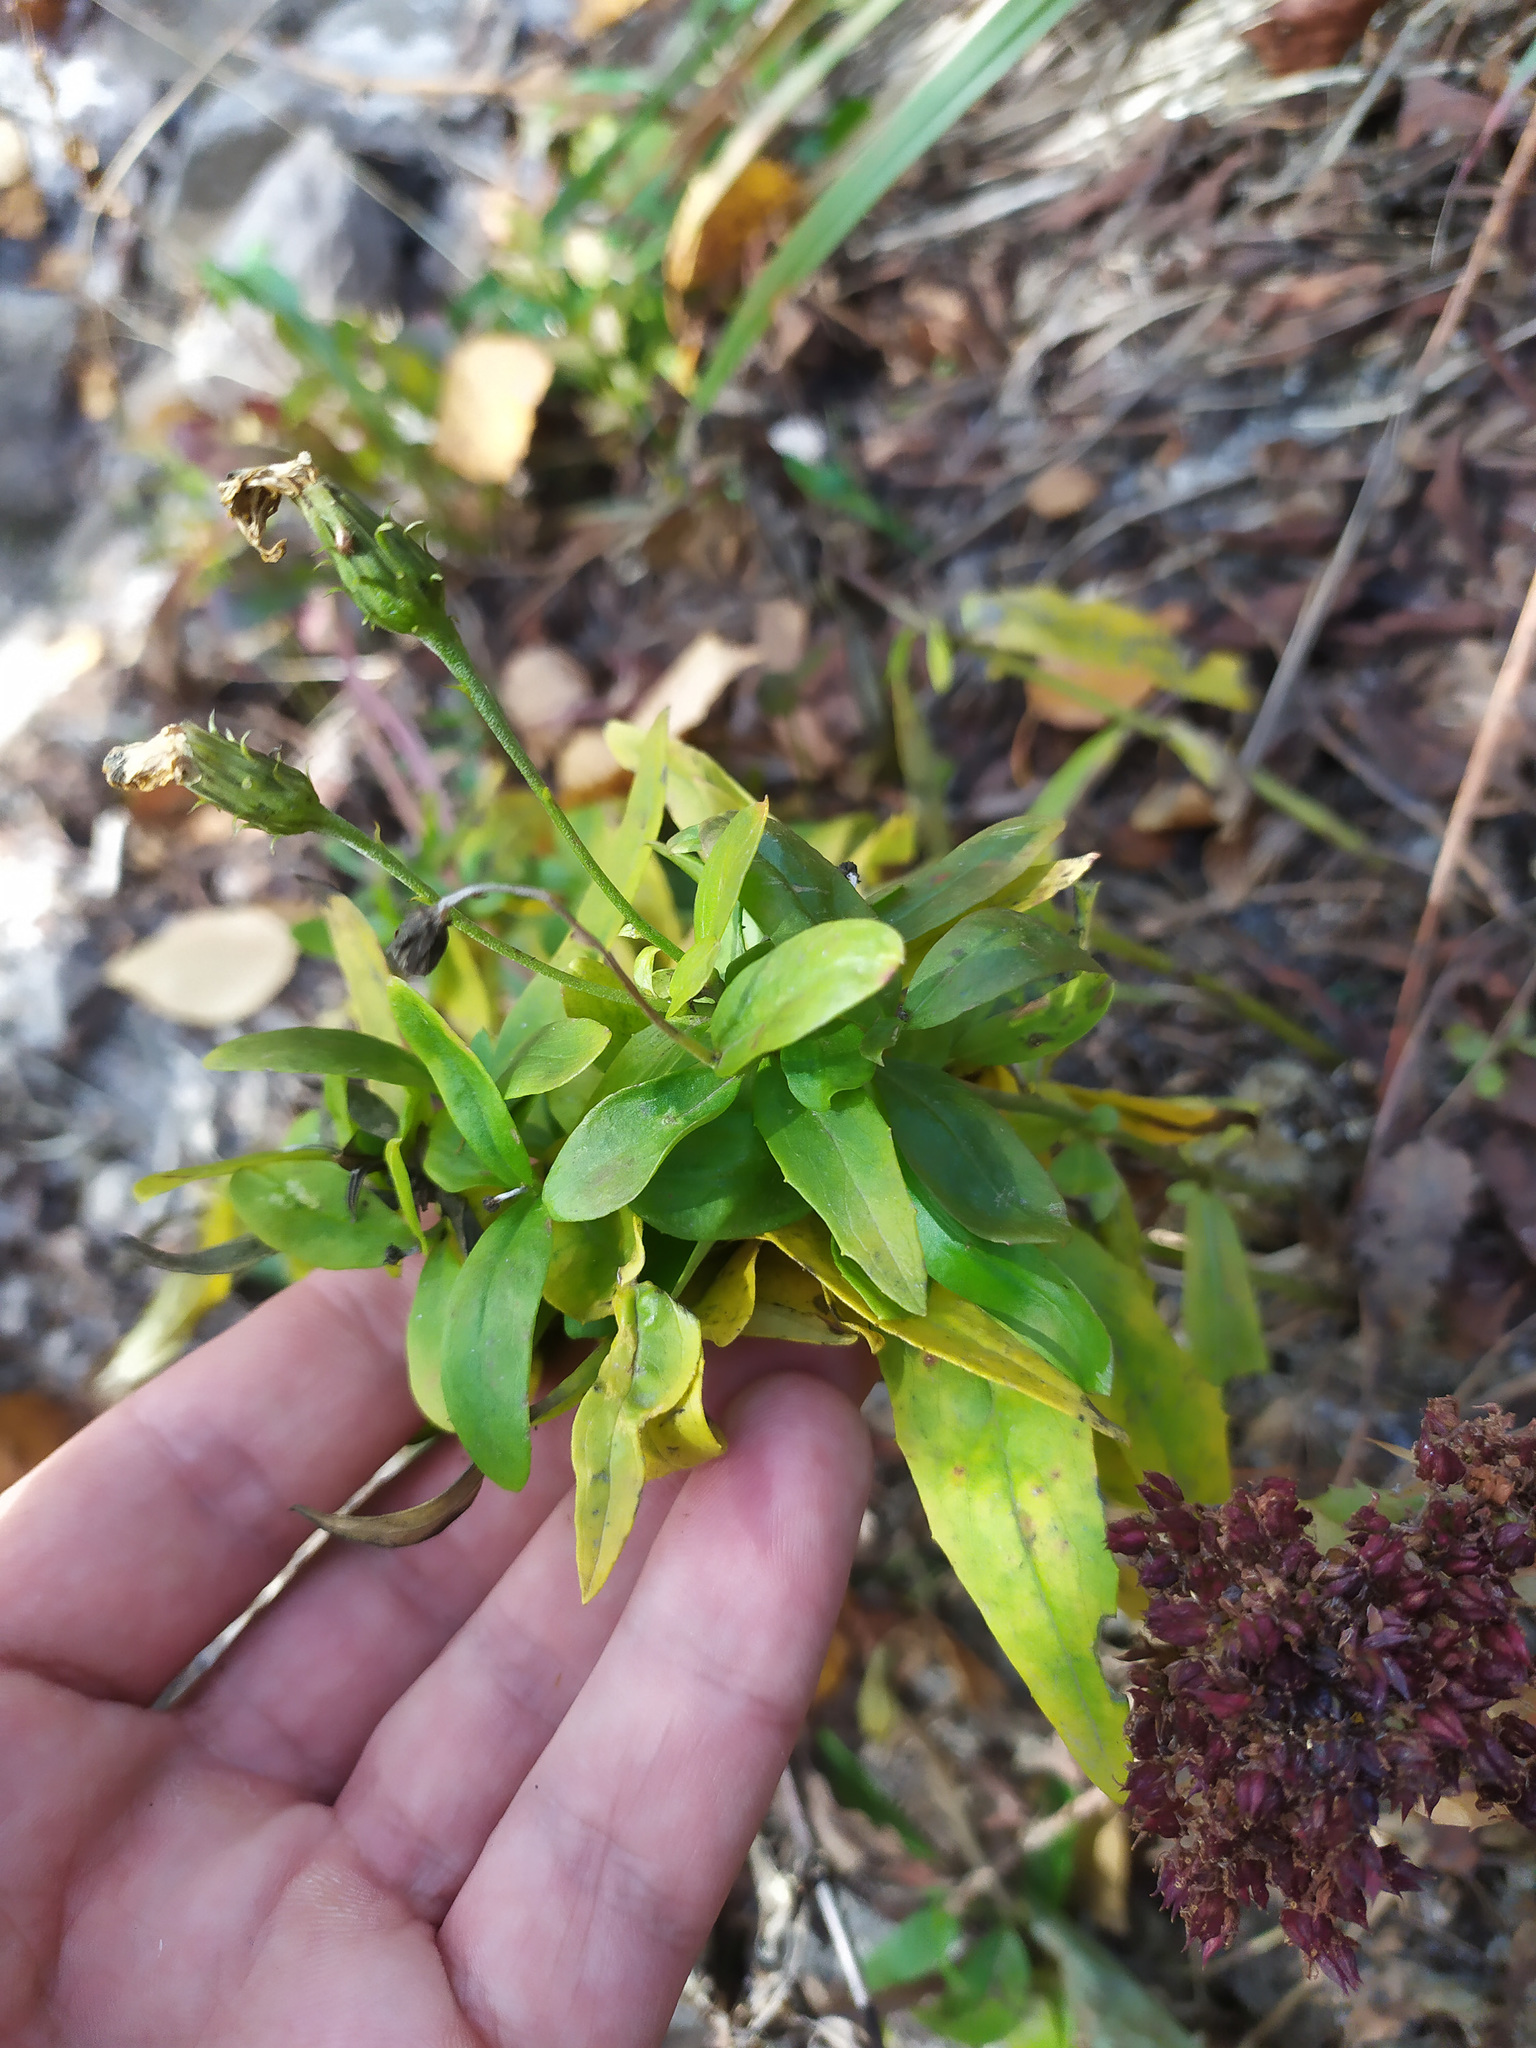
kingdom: Plantae
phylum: Tracheophyta
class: Magnoliopsida
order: Asterales
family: Asteraceae
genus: Hieracium
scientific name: Hieracium umbellatum
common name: Northern hawkweed
